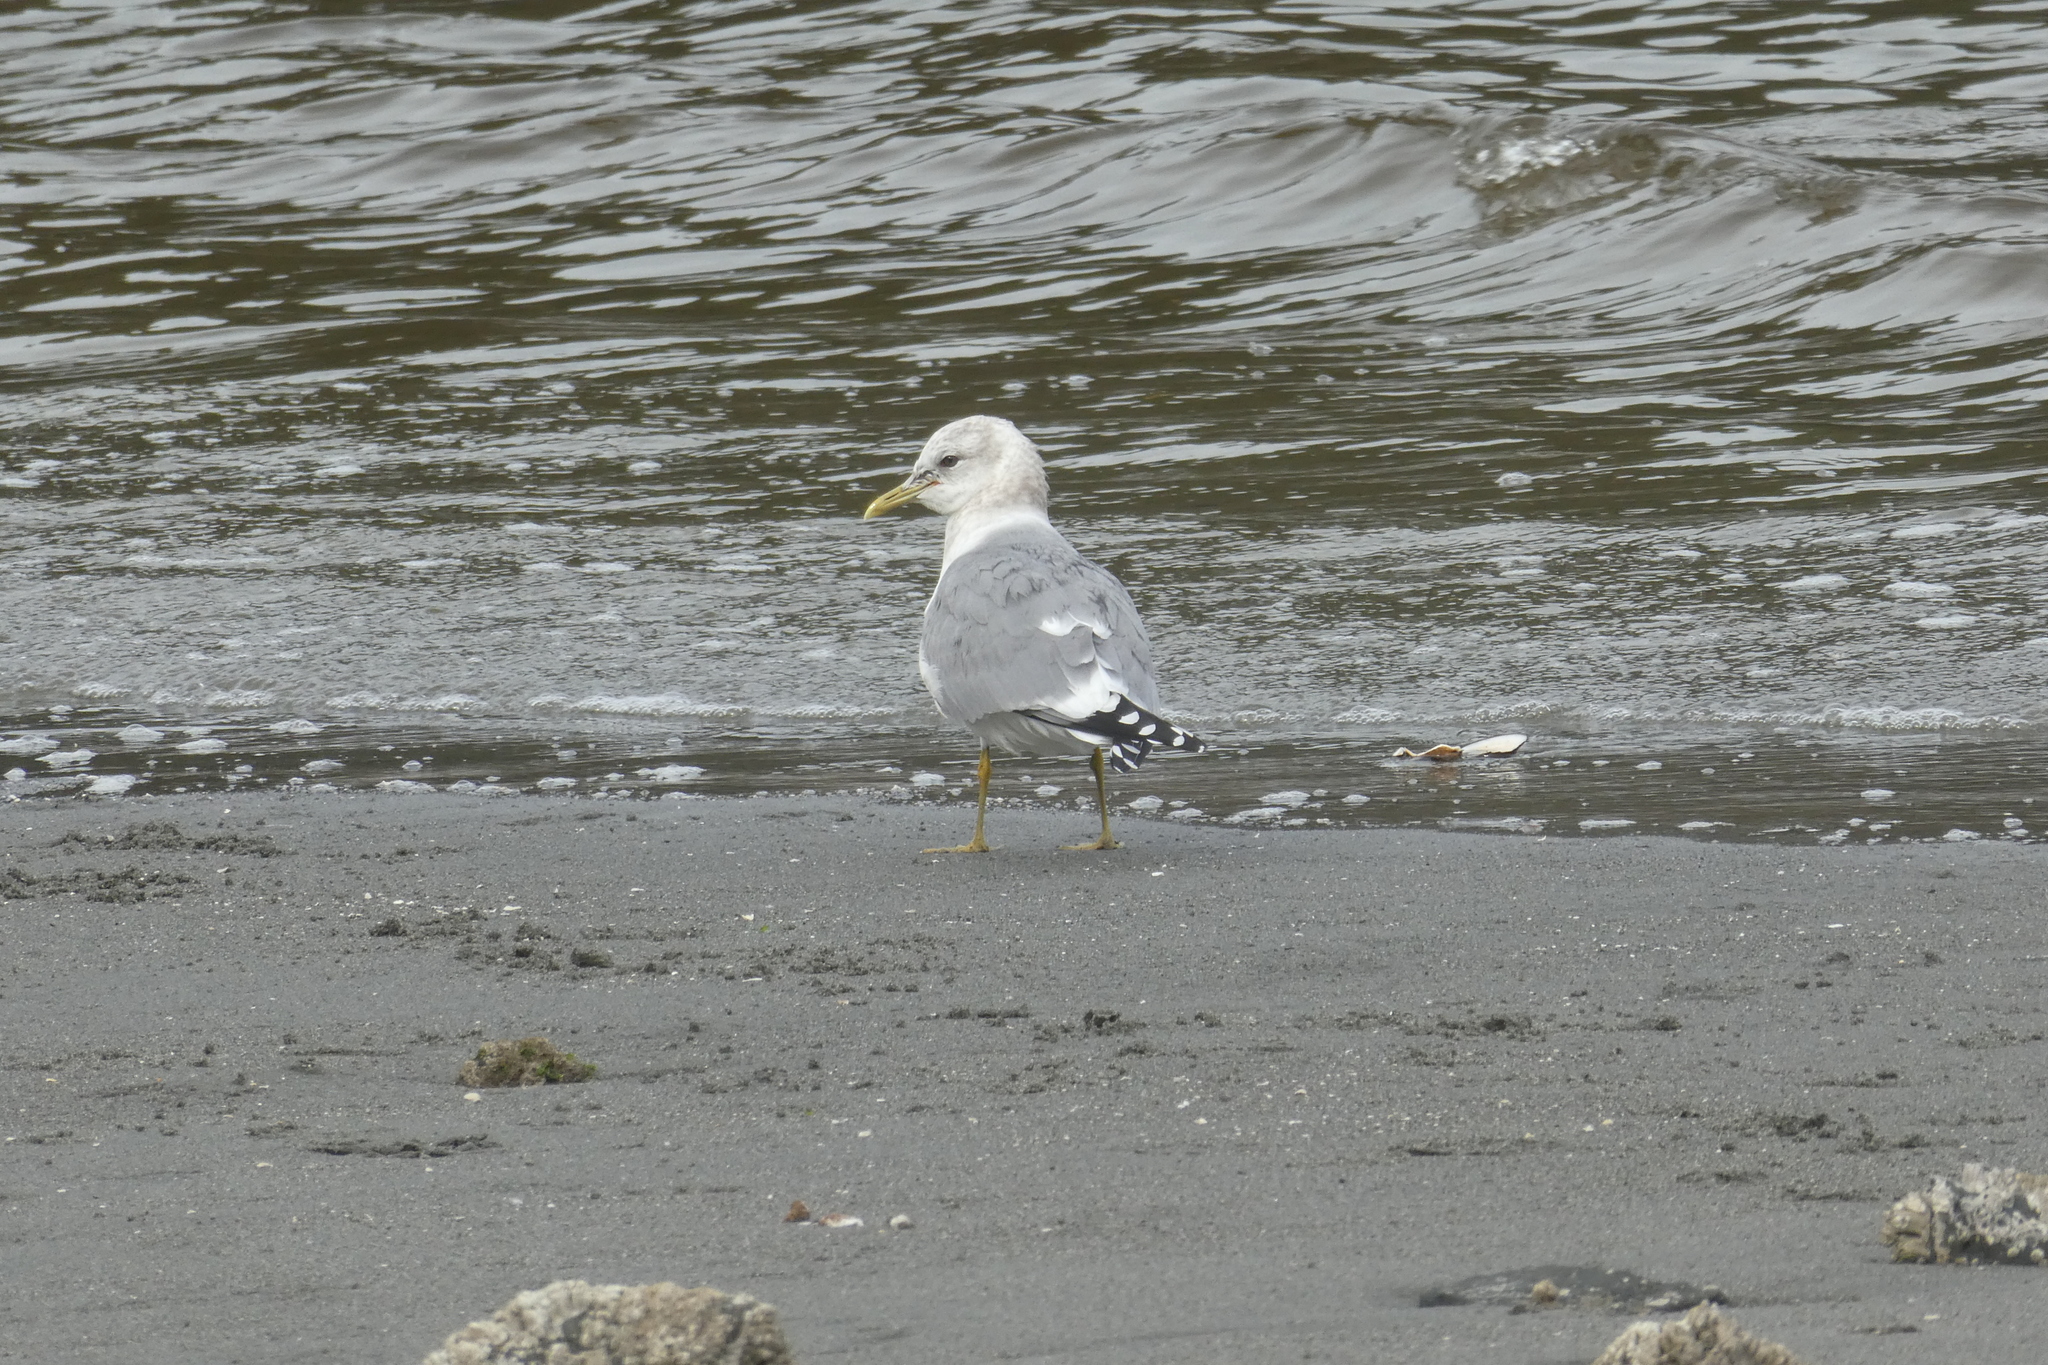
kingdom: Animalia
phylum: Chordata
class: Aves
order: Charadriiformes
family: Laridae
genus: Larus
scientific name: Larus brachyrhynchus
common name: Short-billed gull
